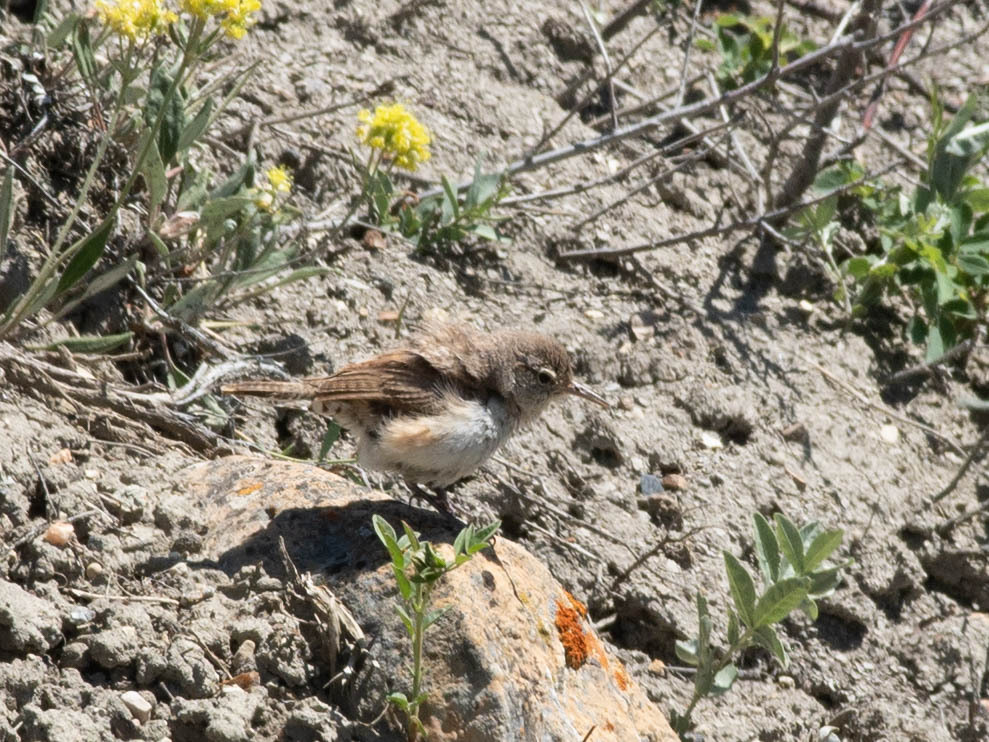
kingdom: Animalia
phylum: Chordata
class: Aves
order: Passeriformes
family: Troglodytidae
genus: Salpinctes
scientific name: Salpinctes obsoletus
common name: Rock wren
